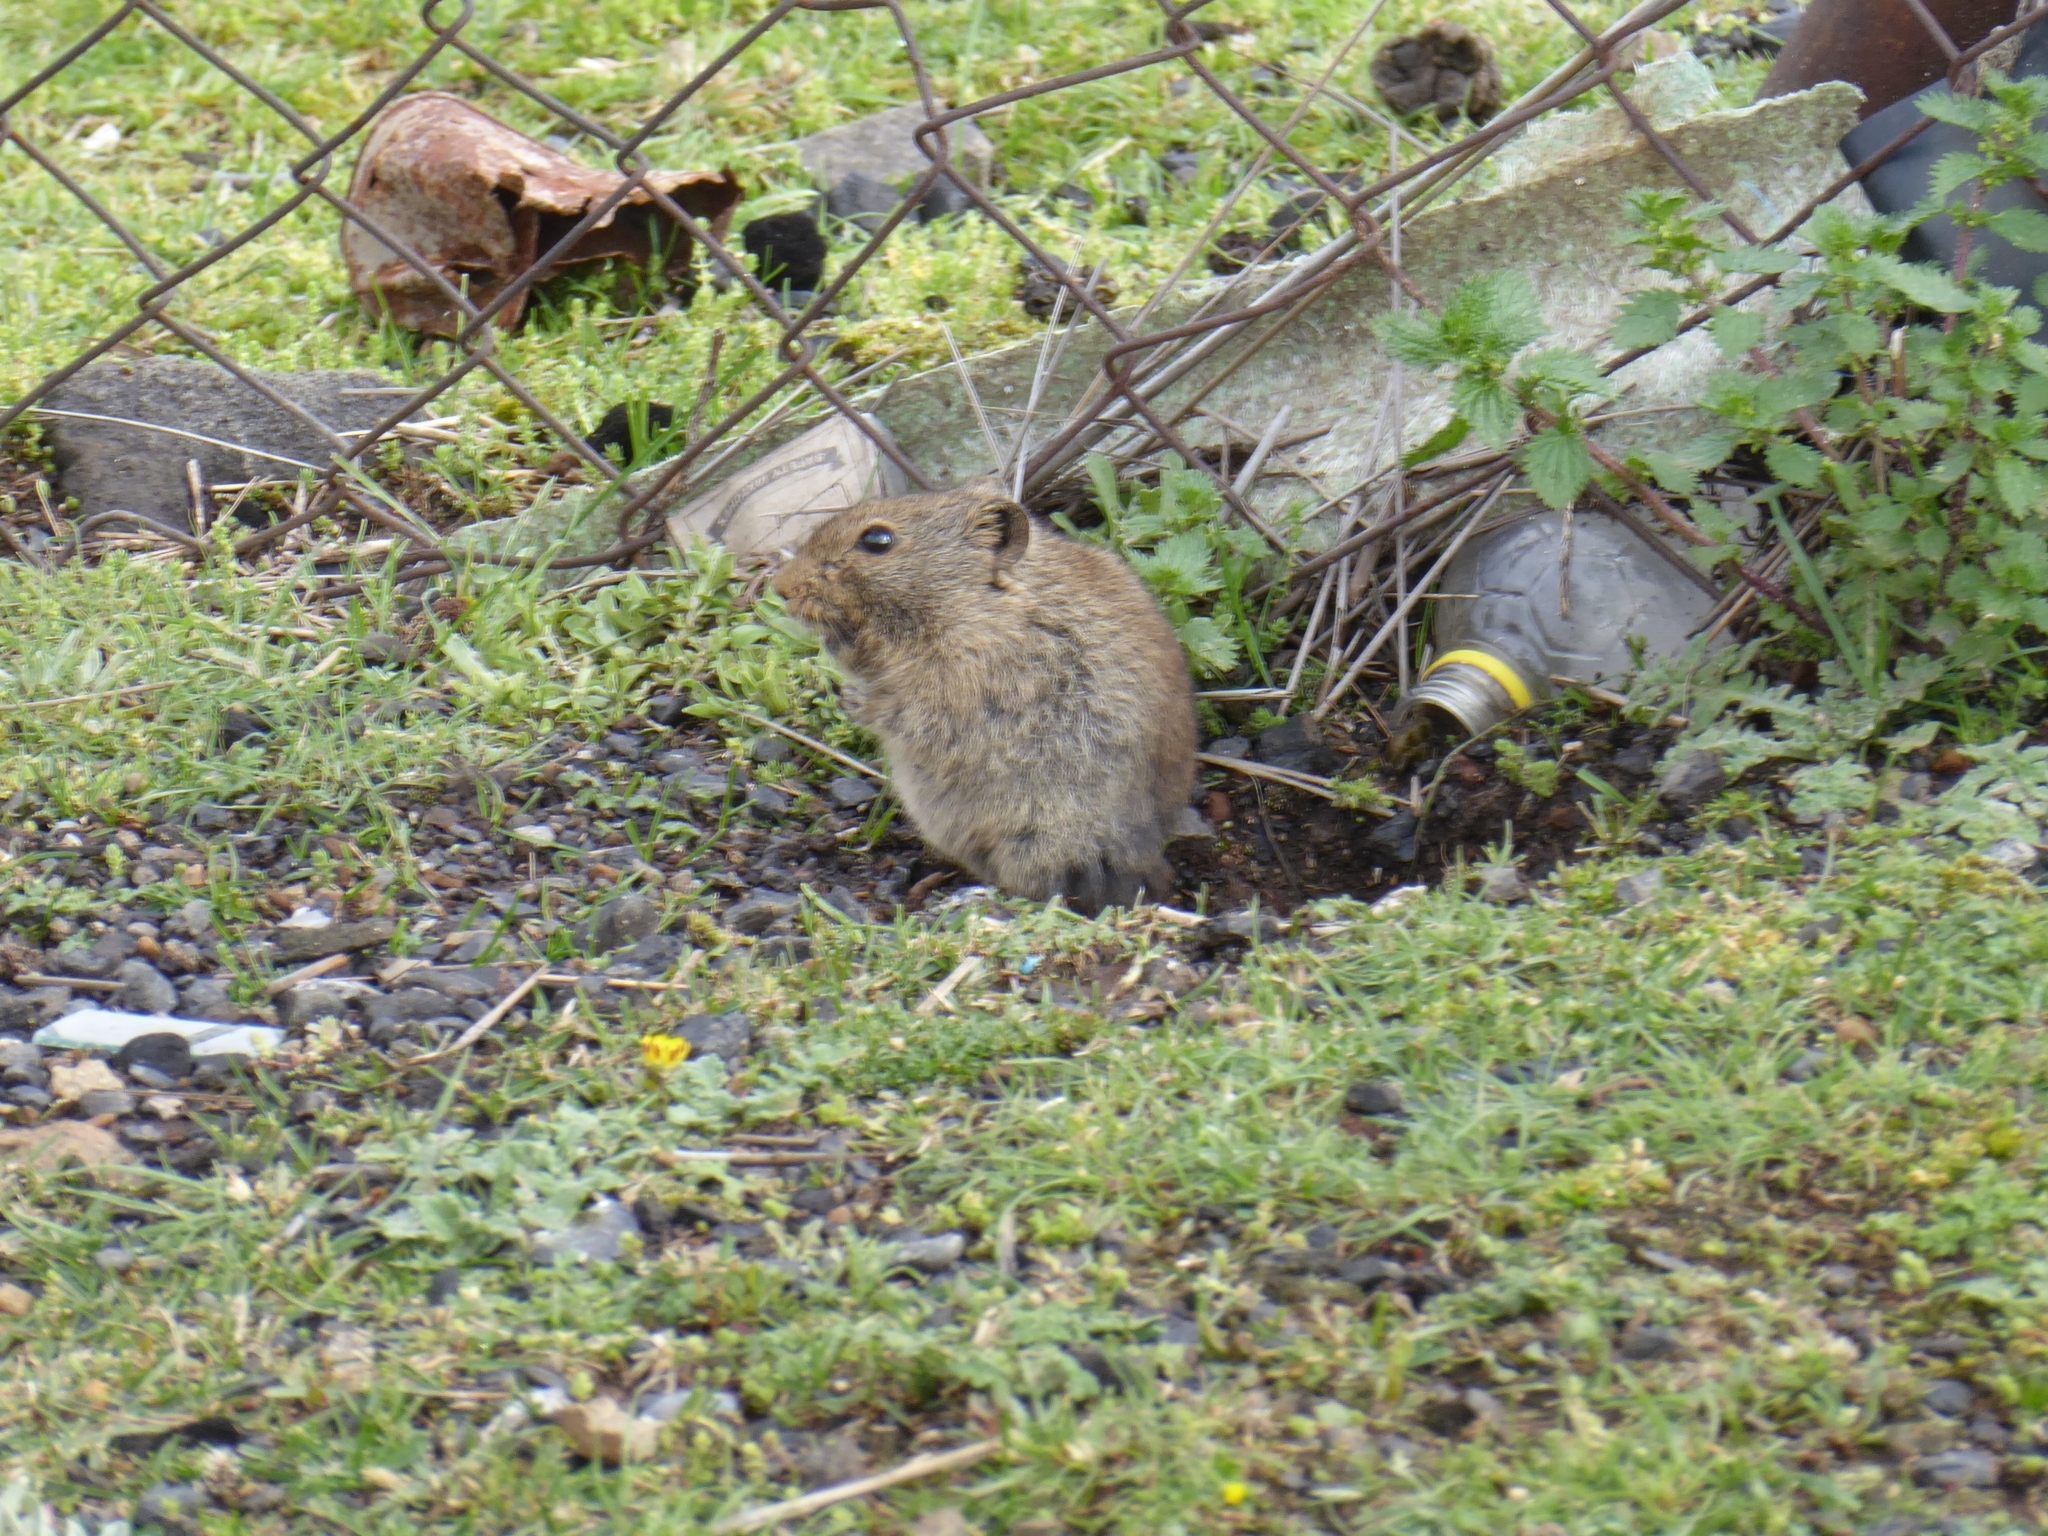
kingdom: Animalia
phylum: Chordata
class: Mammalia
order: Rodentia
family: Muridae
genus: Myotomys
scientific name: Myotomys sloggetti
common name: Rock karroo rat
